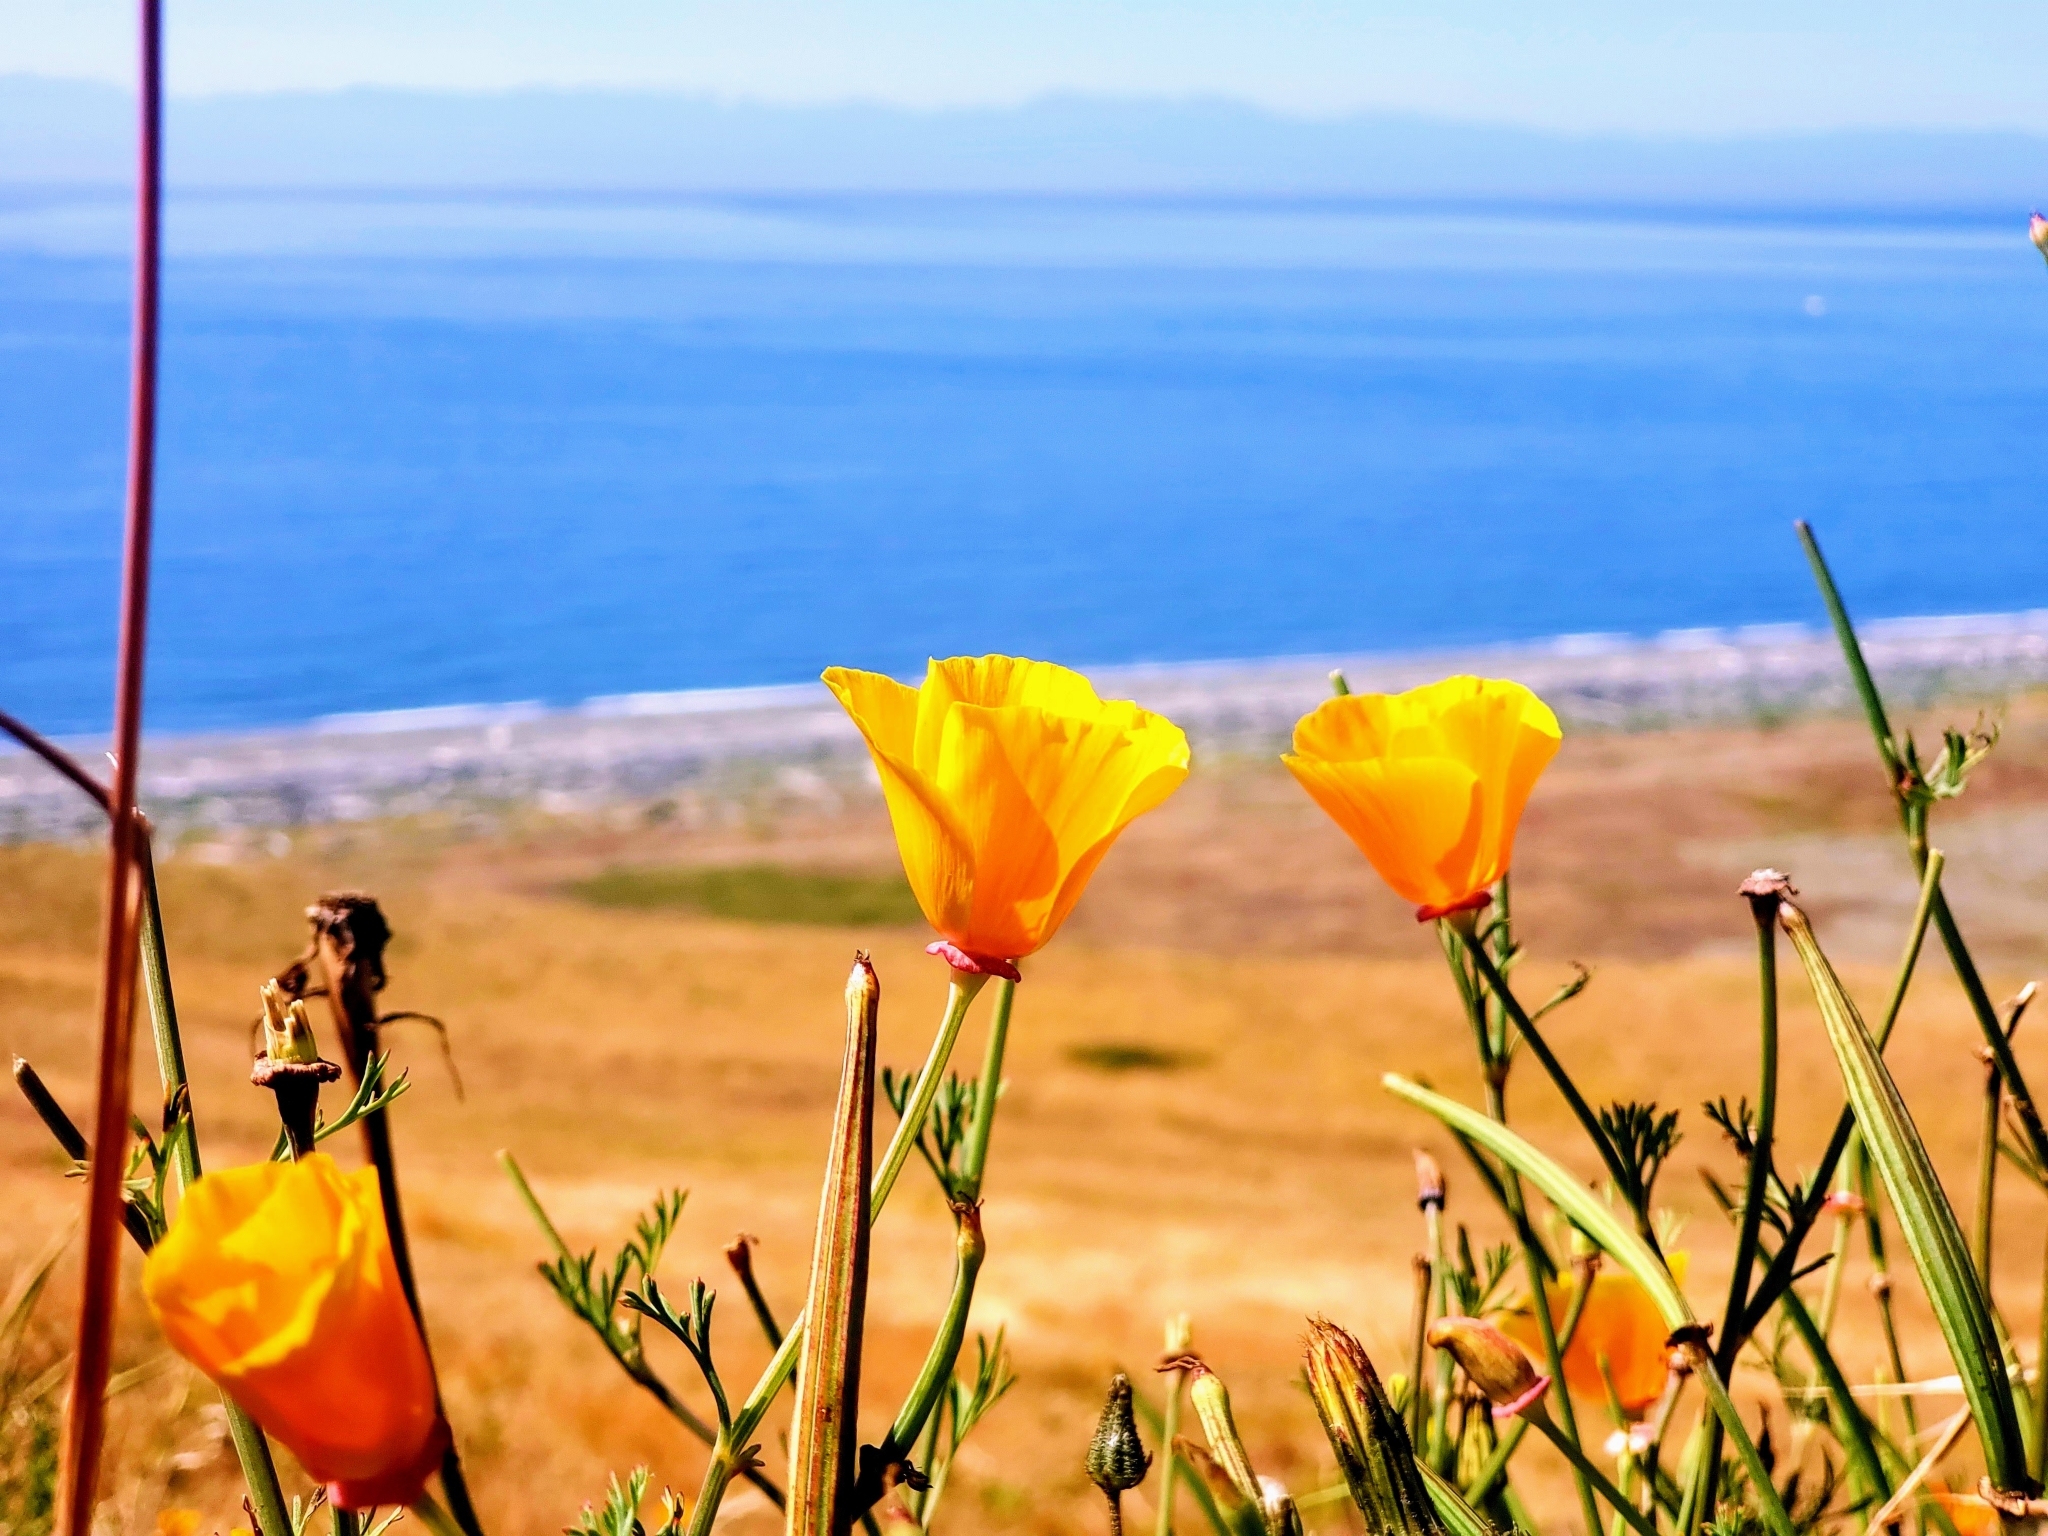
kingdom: Plantae
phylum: Tracheophyta
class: Magnoliopsida
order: Ranunculales
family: Papaveraceae
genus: Eschscholzia
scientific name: Eschscholzia californica
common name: California poppy
